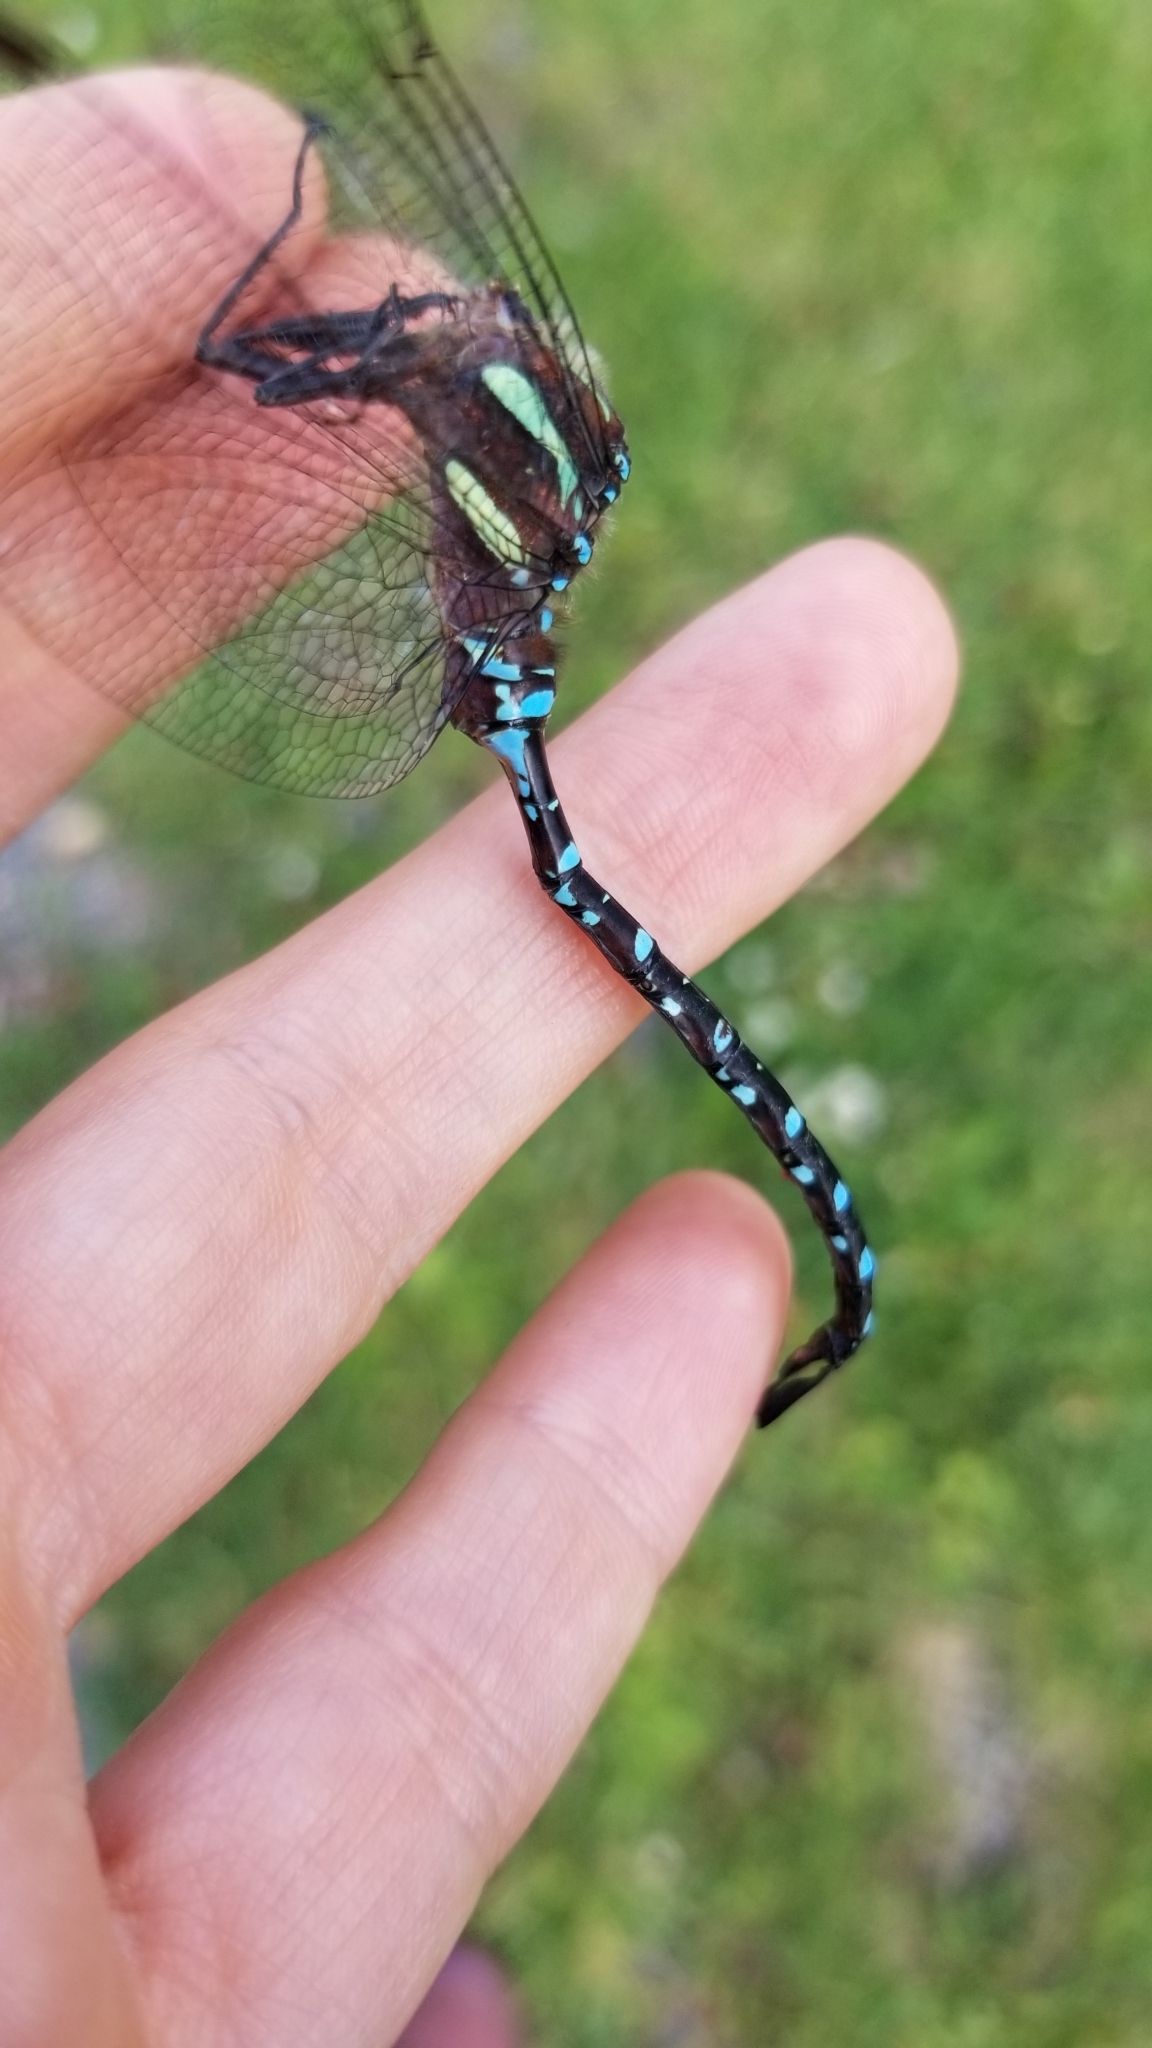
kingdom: Animalia
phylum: Arthropoda
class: Insecta
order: Odonata
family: Aeshnidae
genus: Aeshna
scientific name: Aeshna tuberculifera
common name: Aeschne à tubercules
